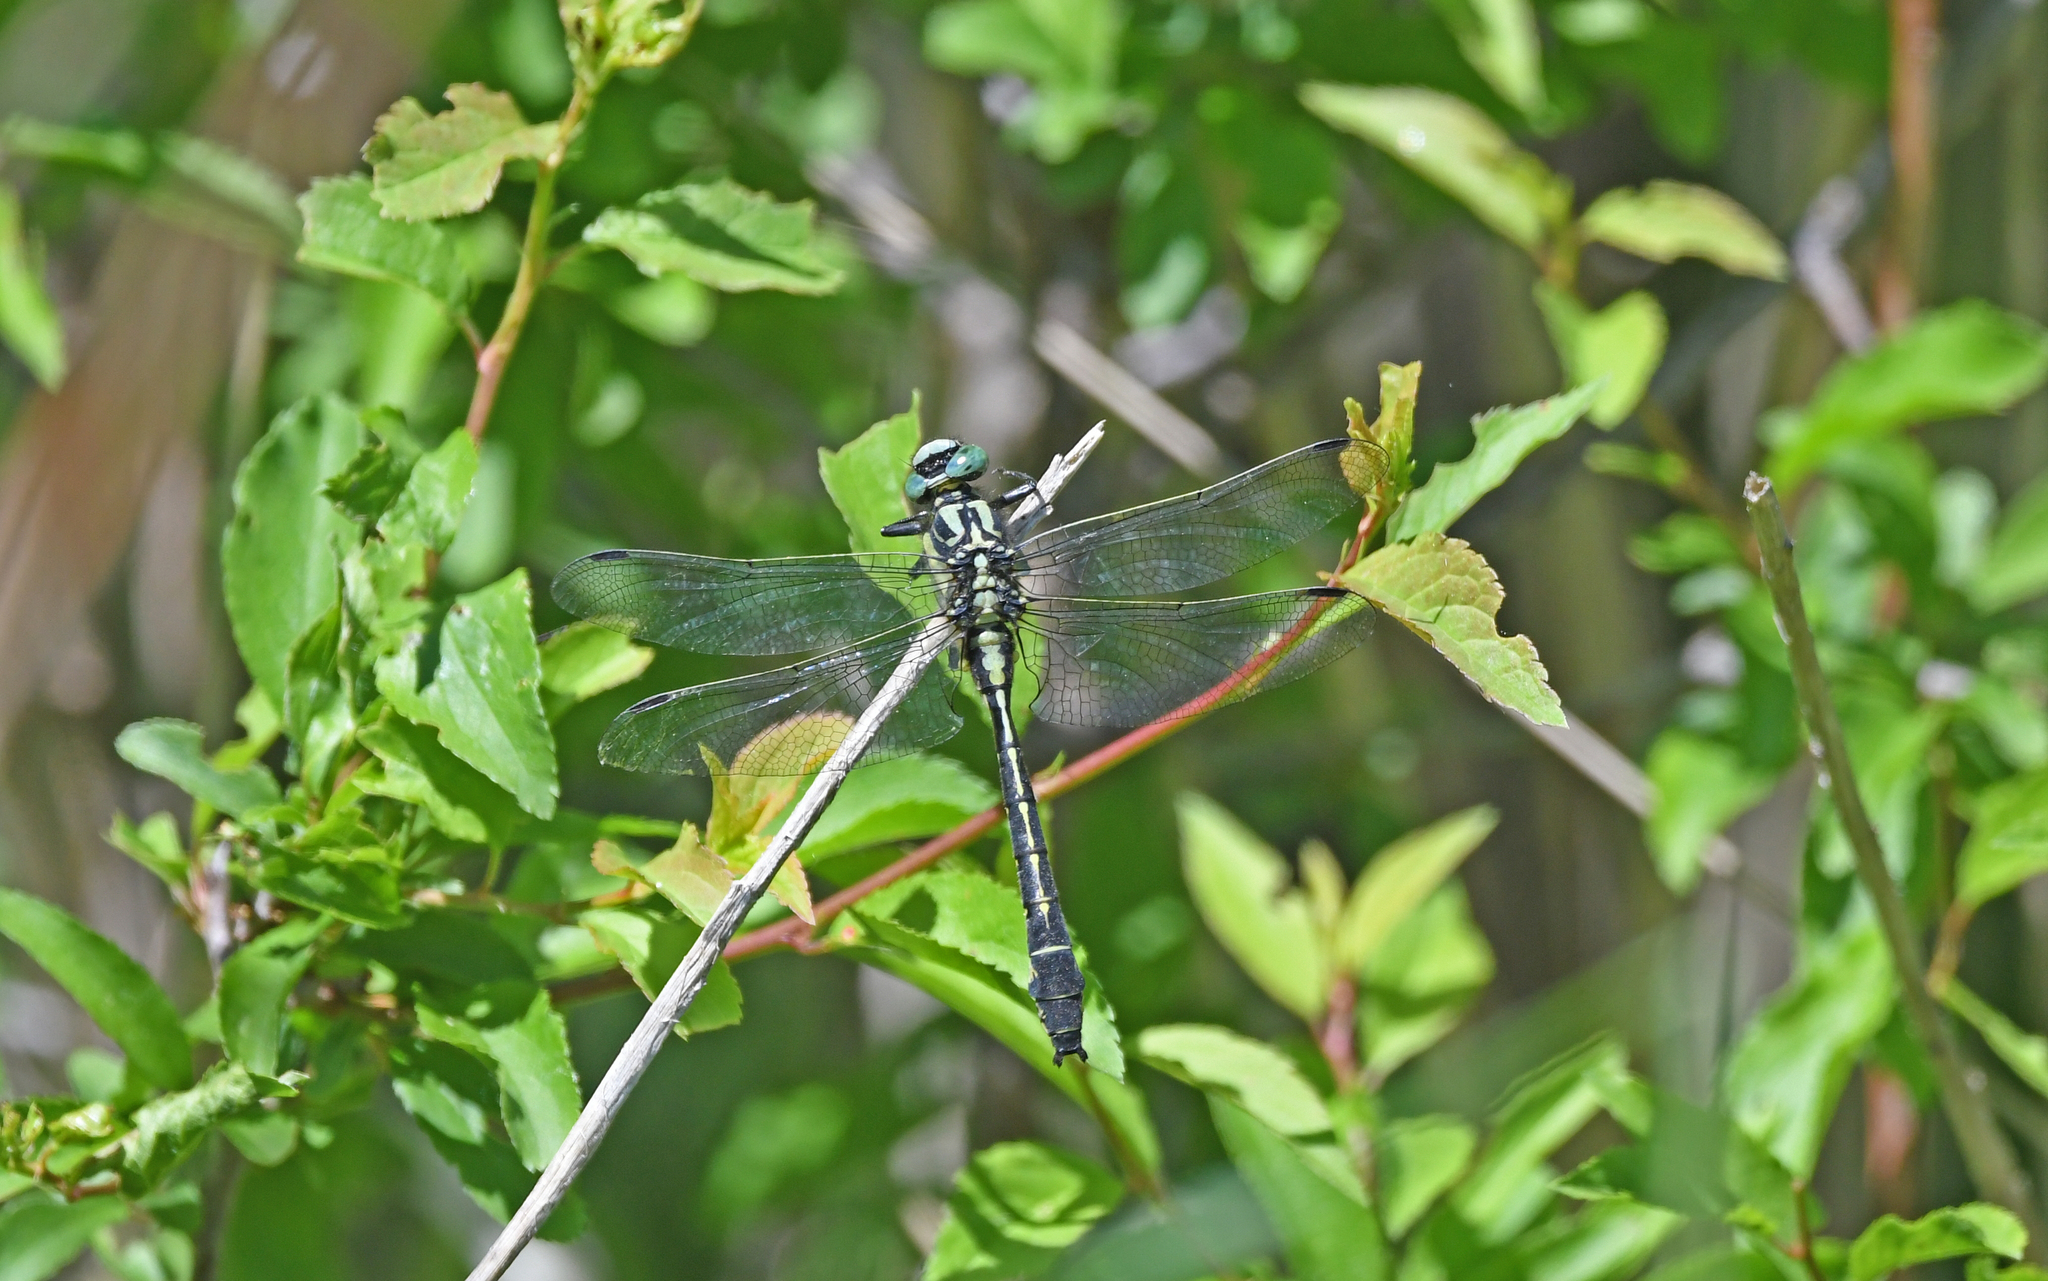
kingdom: Animalia
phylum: Arthropoda
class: Insecta
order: Odonata
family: Gomphidae
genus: Gomphus
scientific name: Gomphus vulgatissimus
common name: Club-tailed dragonfly
